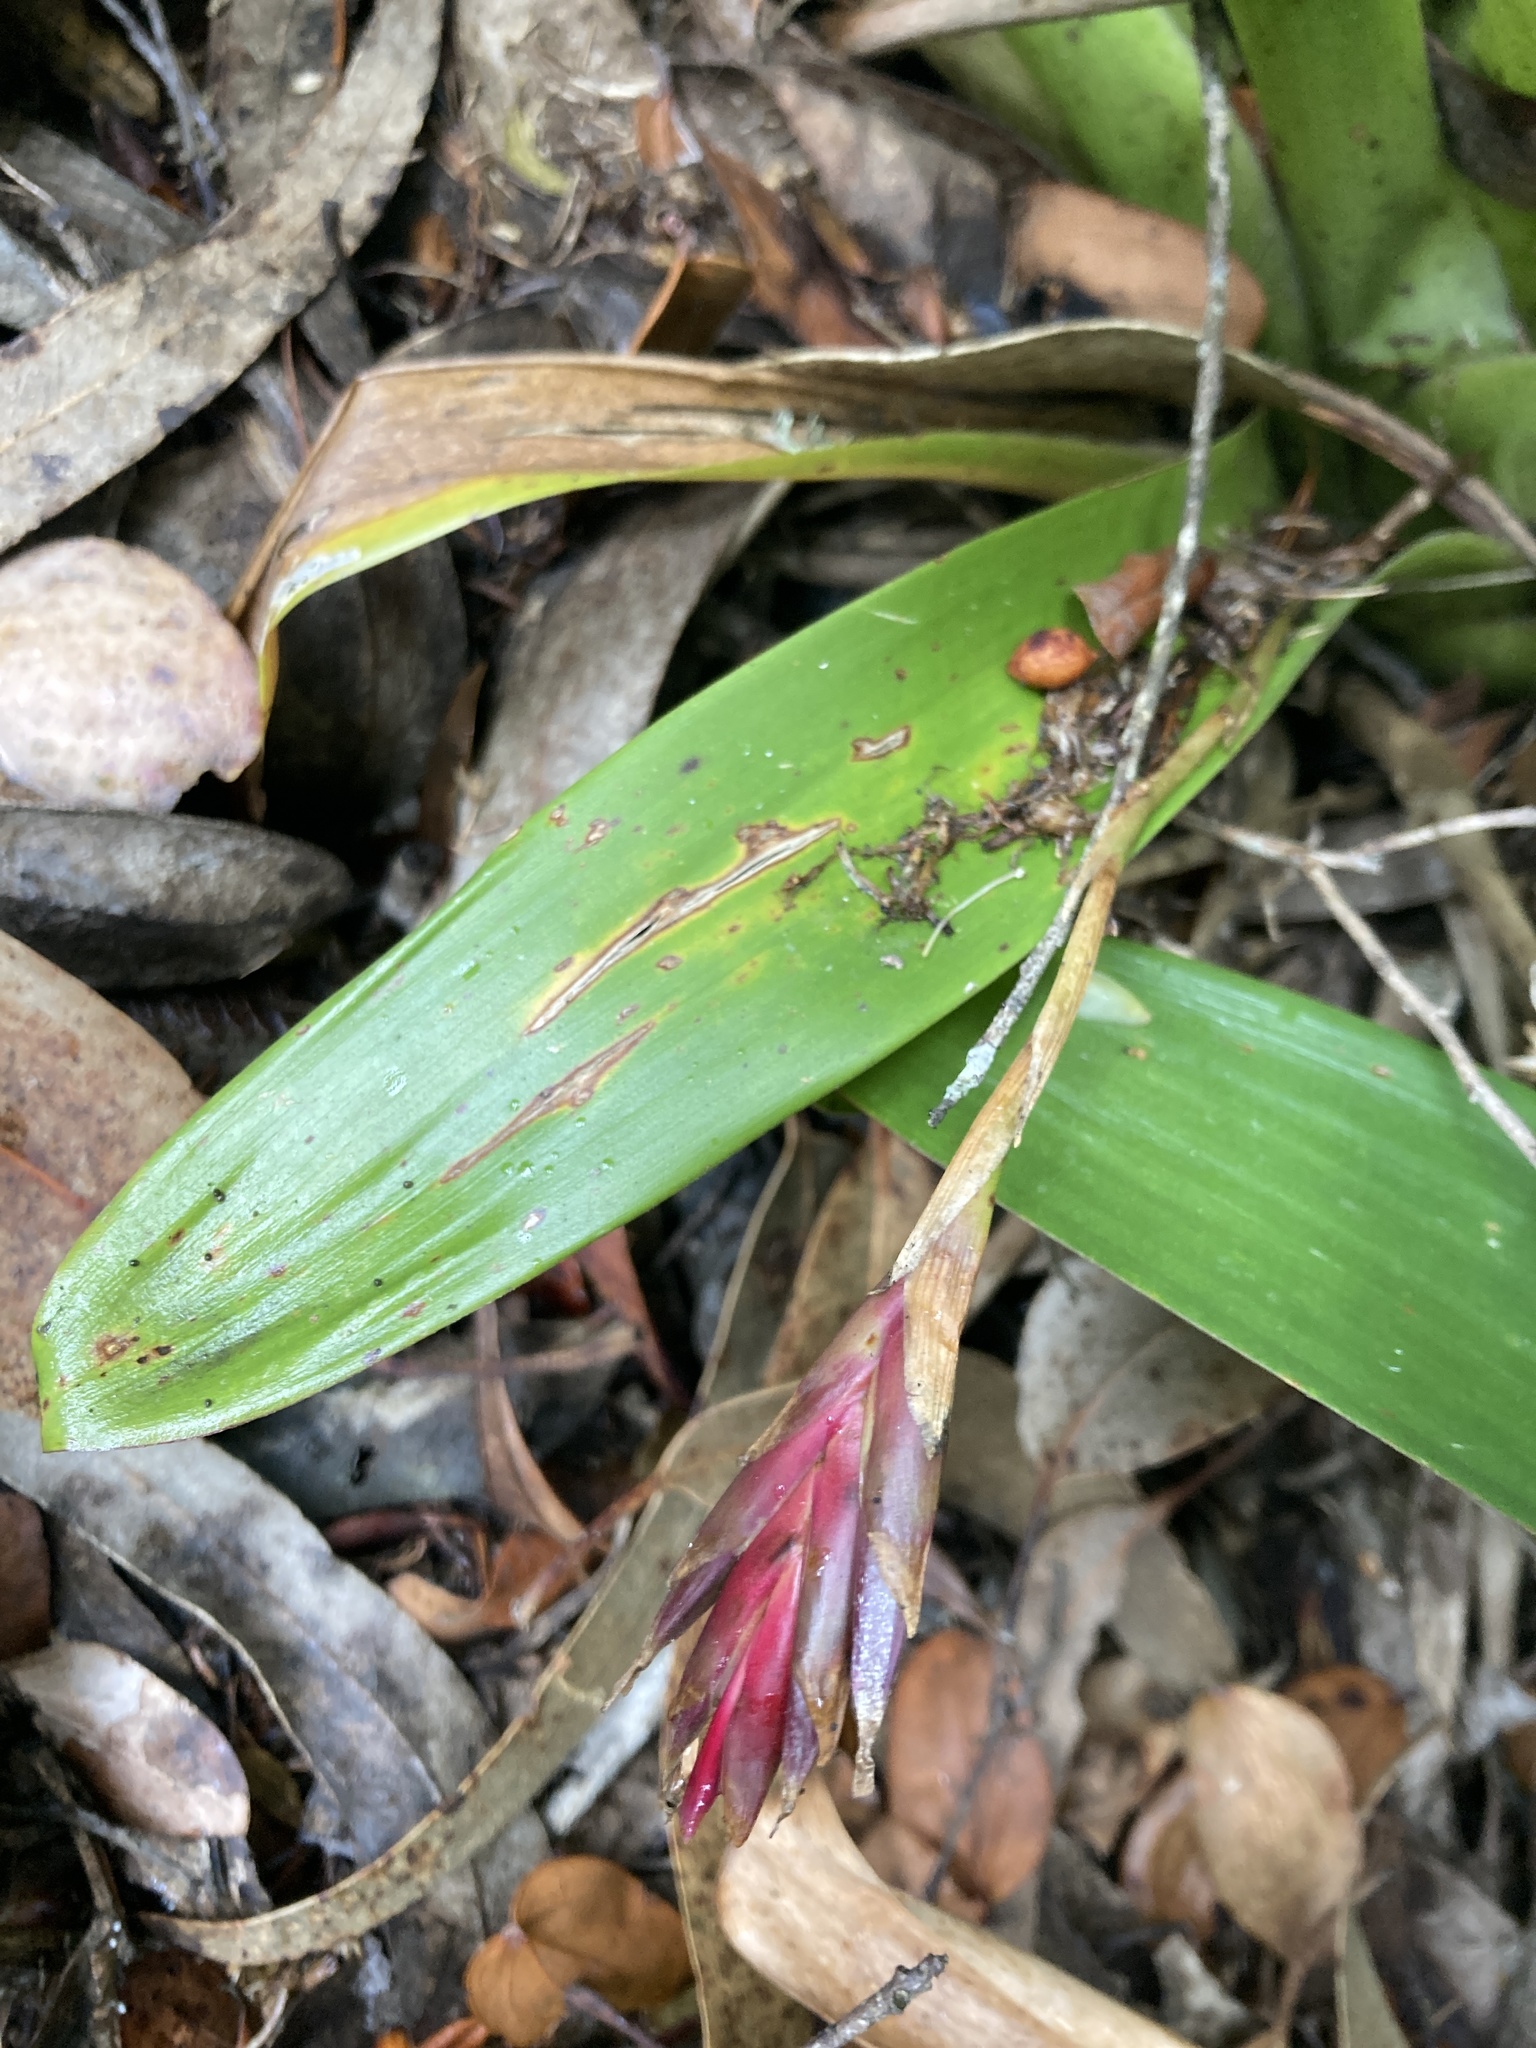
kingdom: Plantae
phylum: Tracheophyta
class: Liliopsida
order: Poales
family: Bromeliaceae
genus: Tillandsia
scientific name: Tillandsia complanata
